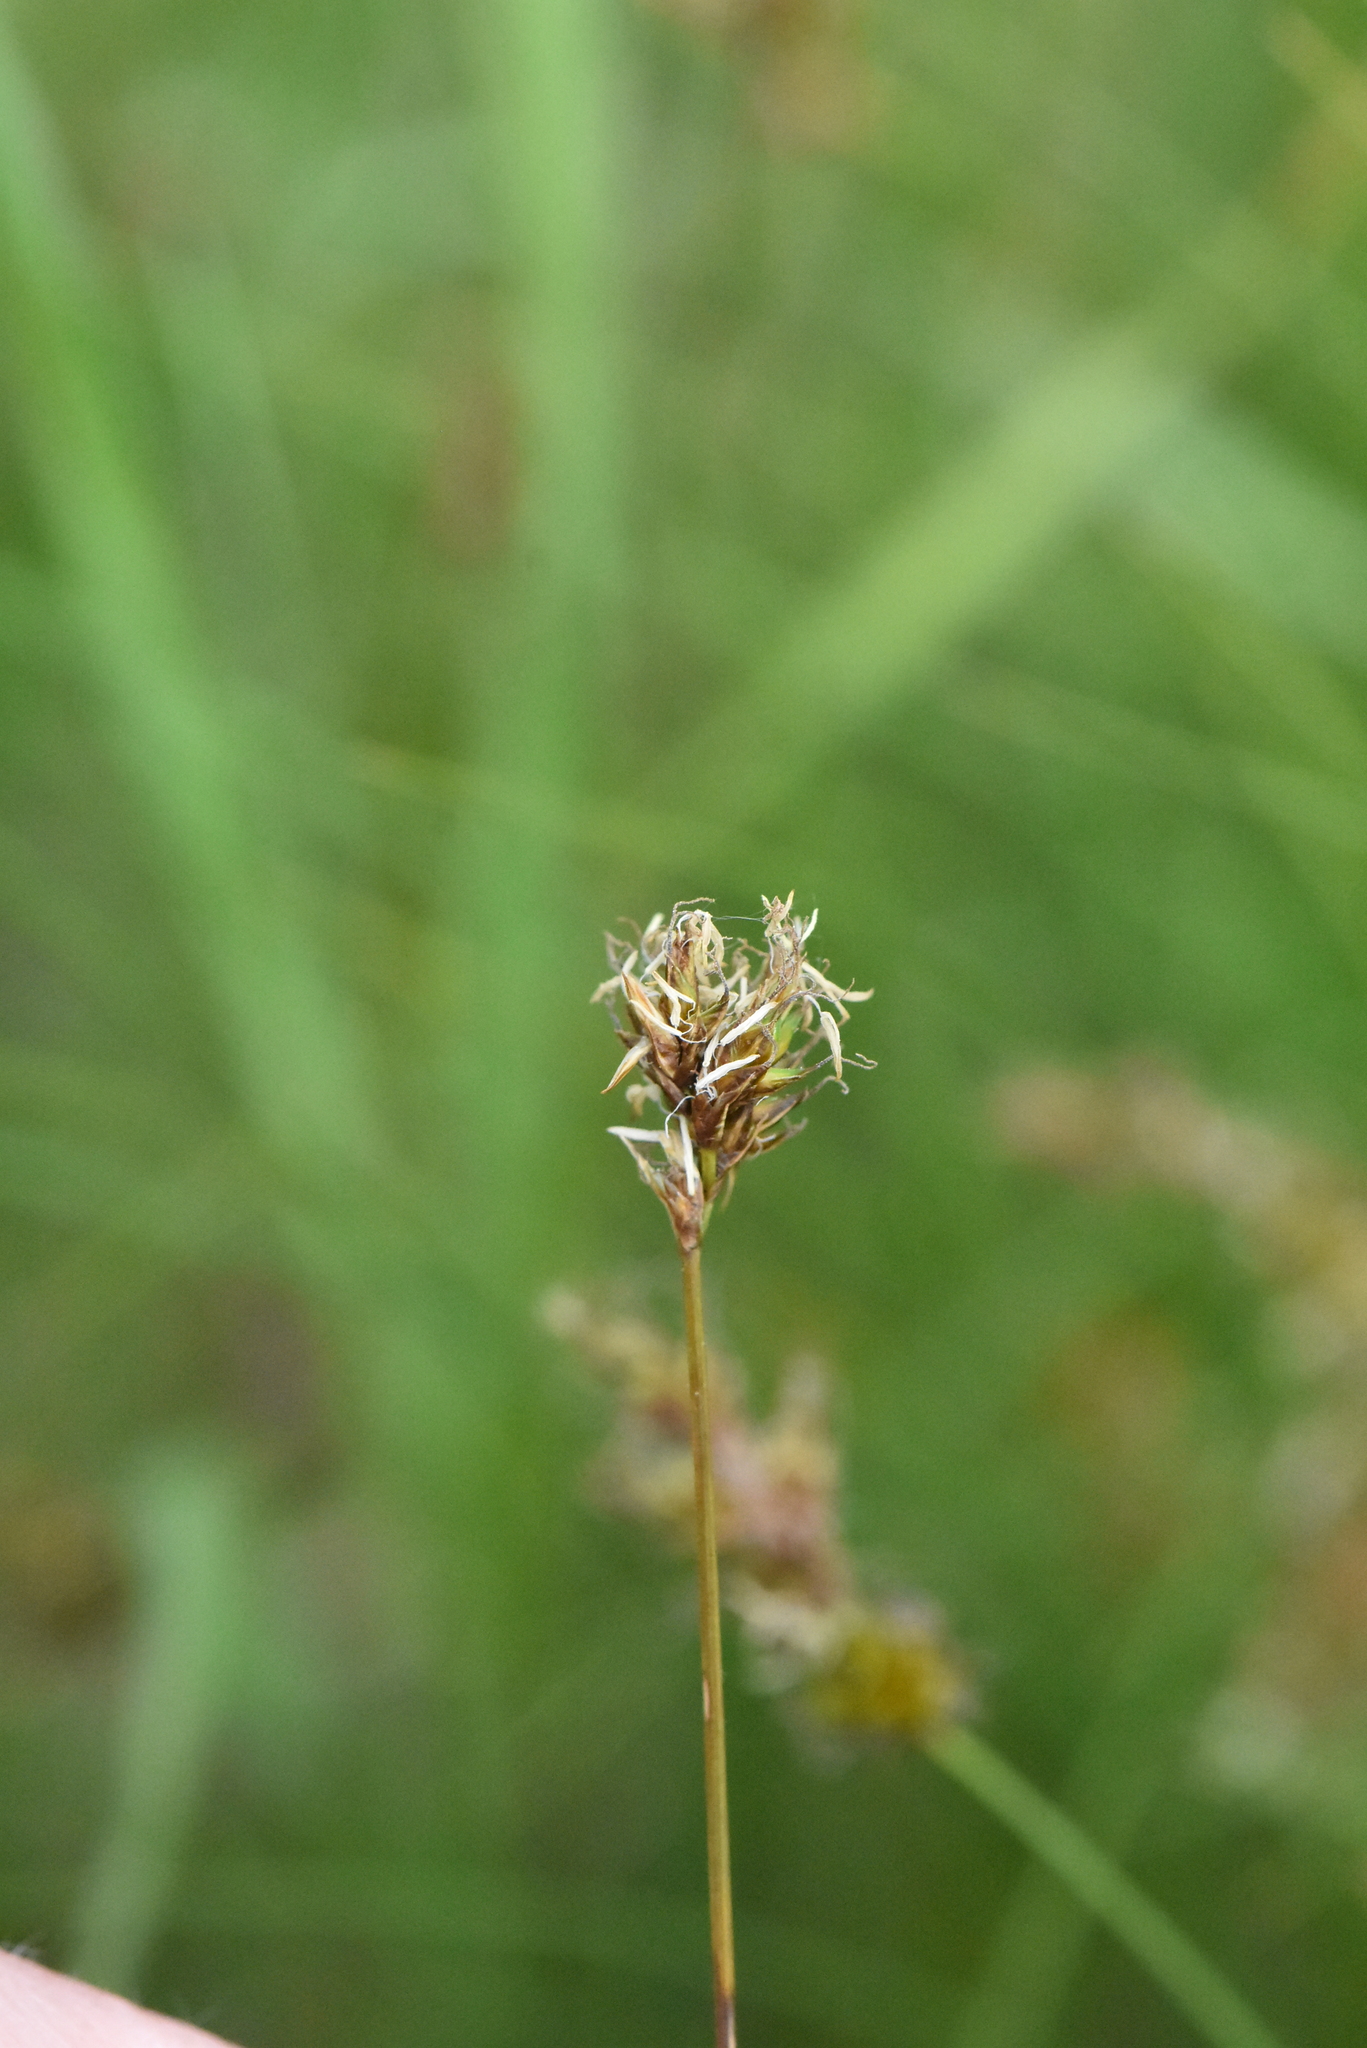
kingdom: Plantae
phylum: Tracheophyta
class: Liliopsida
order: Poales
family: Cyperaceae
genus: Carex
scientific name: Carex praecox
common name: Early sedge
